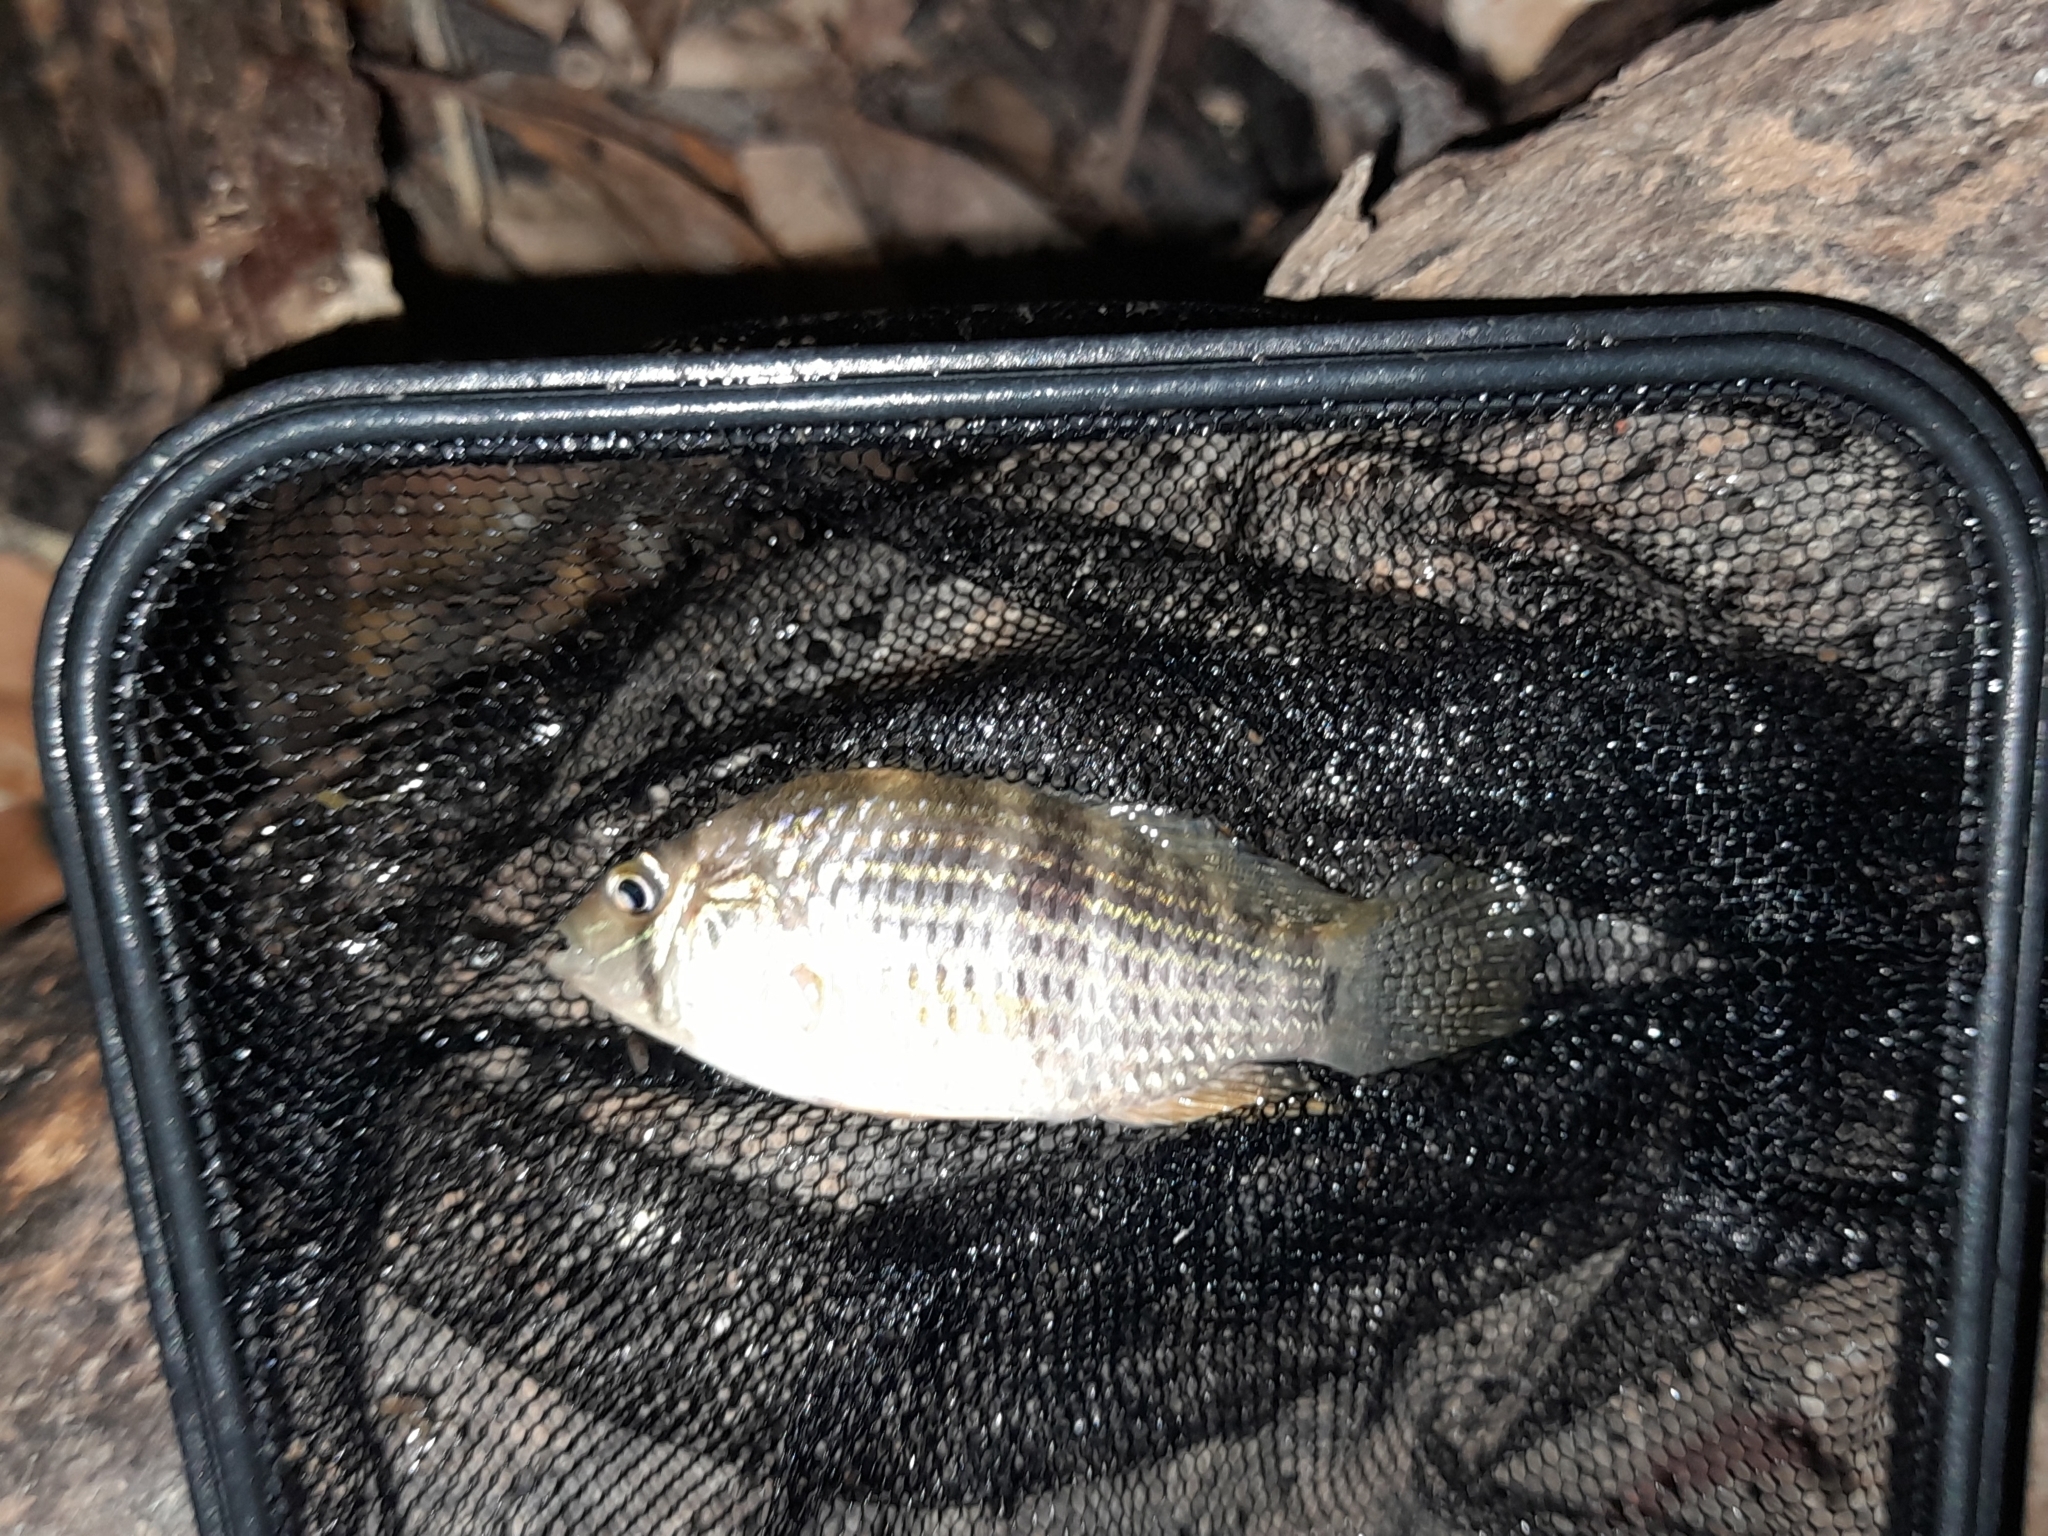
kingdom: Animalia
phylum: Chordata
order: Perciformes
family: Cichlidae
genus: Andinoacara
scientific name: Andinoacara coeruleopunctatus
